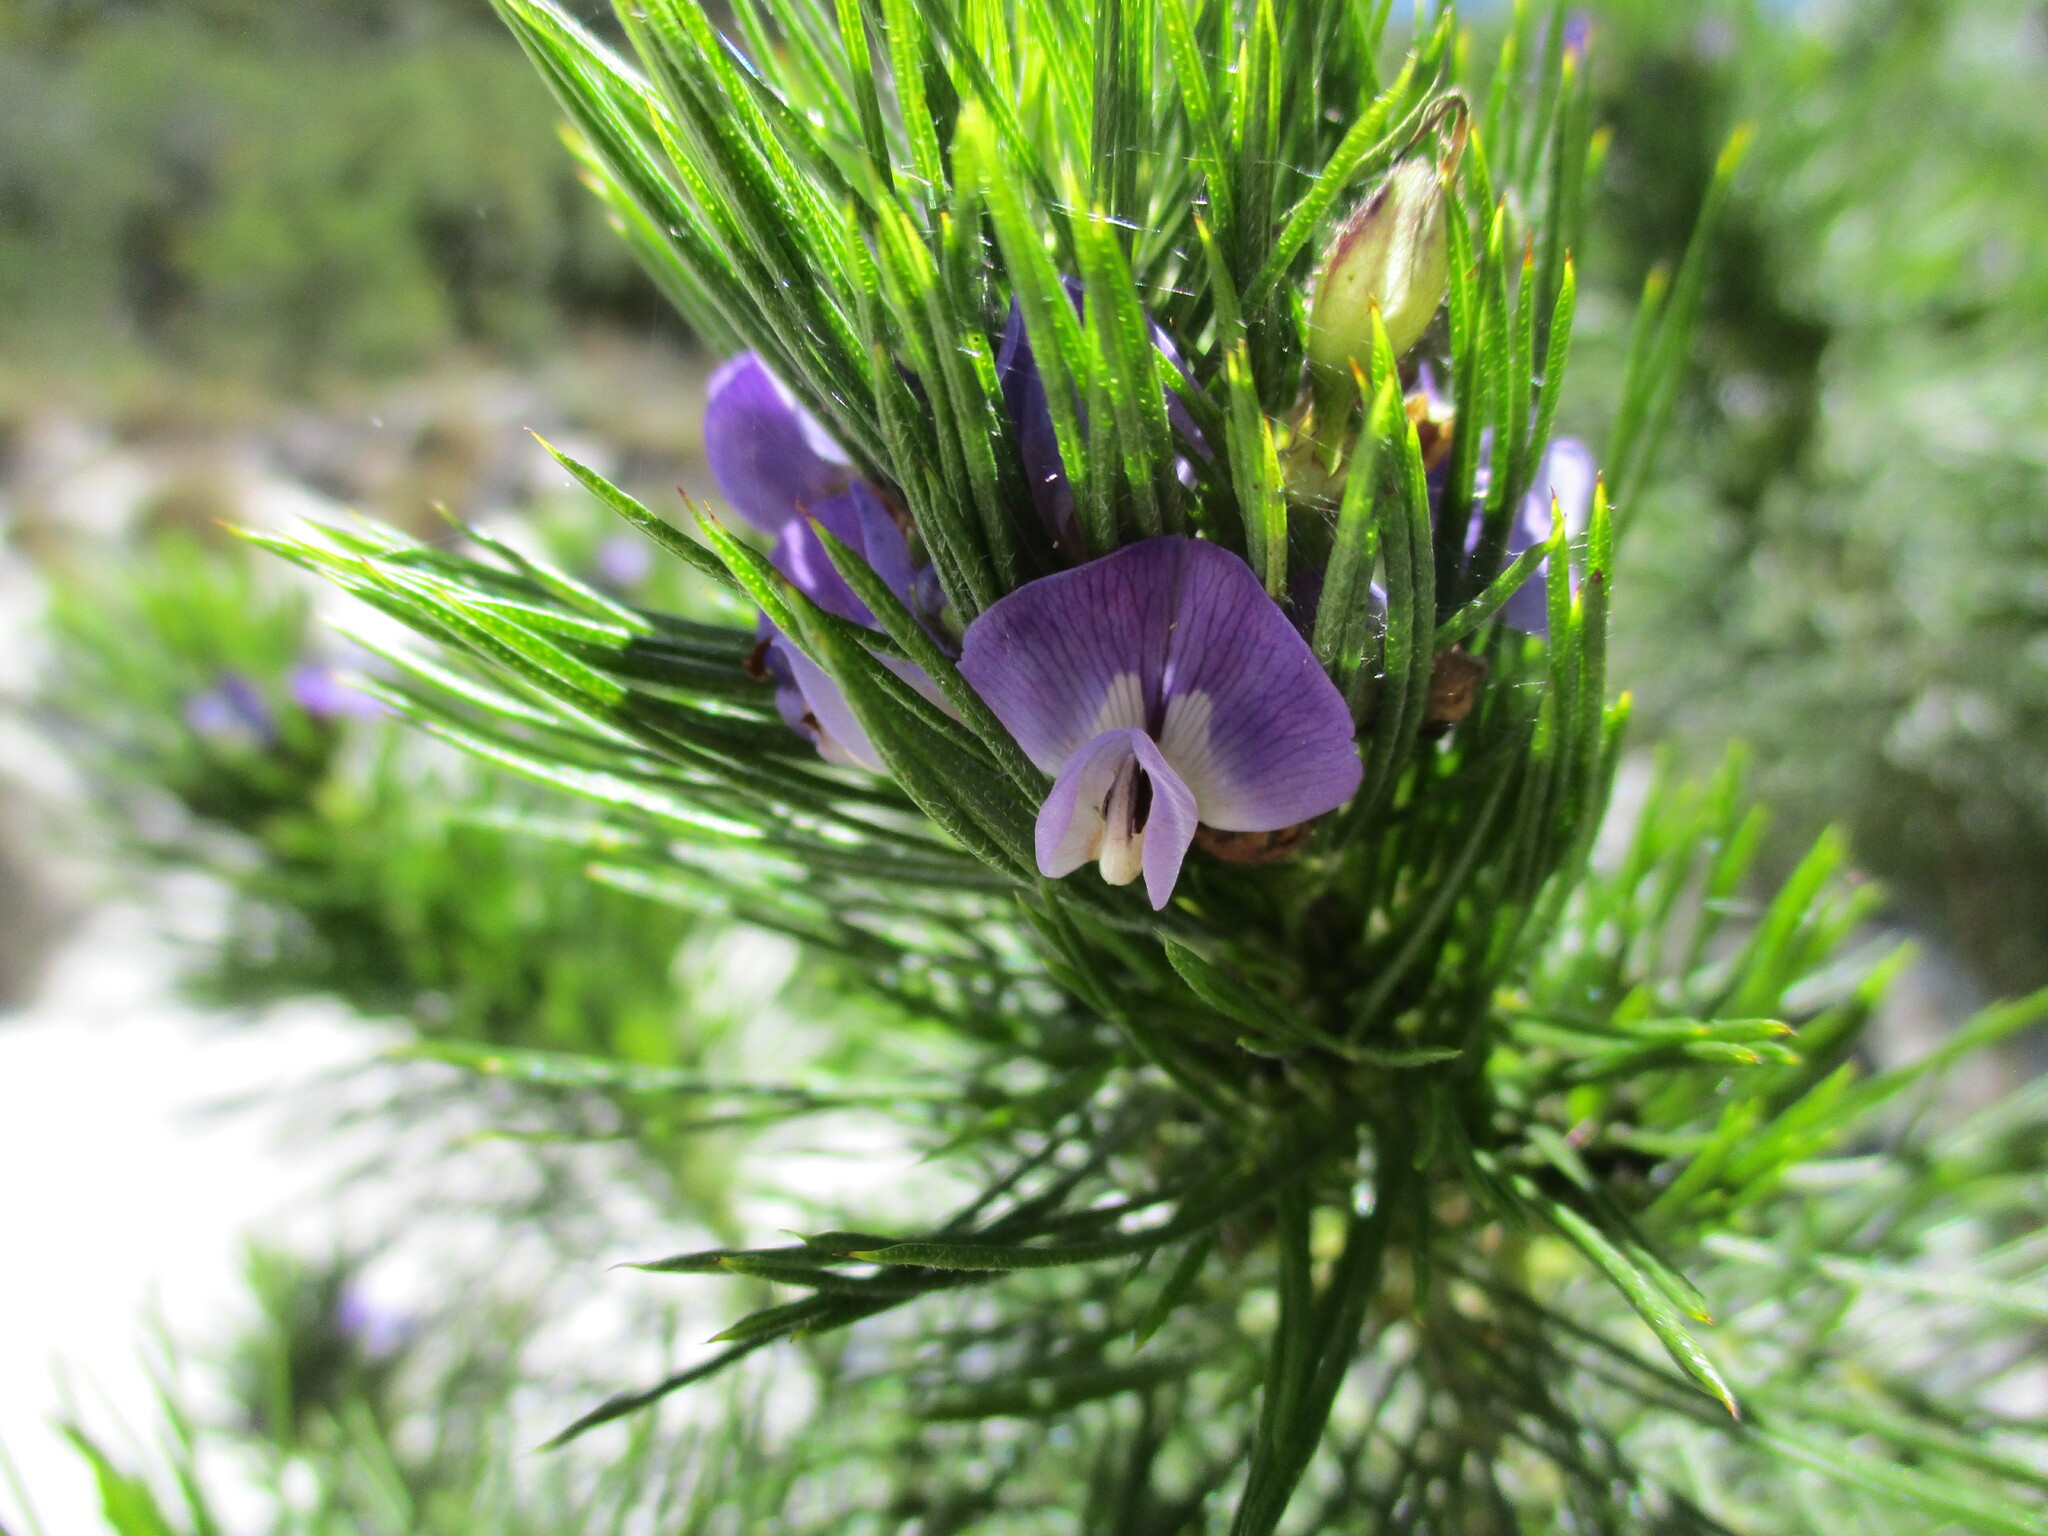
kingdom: Plantae
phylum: Tracheophyta
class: Magnoliopsida
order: Fabales
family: Fabaceae
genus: Psoralea
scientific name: Psoralea pinnata
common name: African scurfpea
